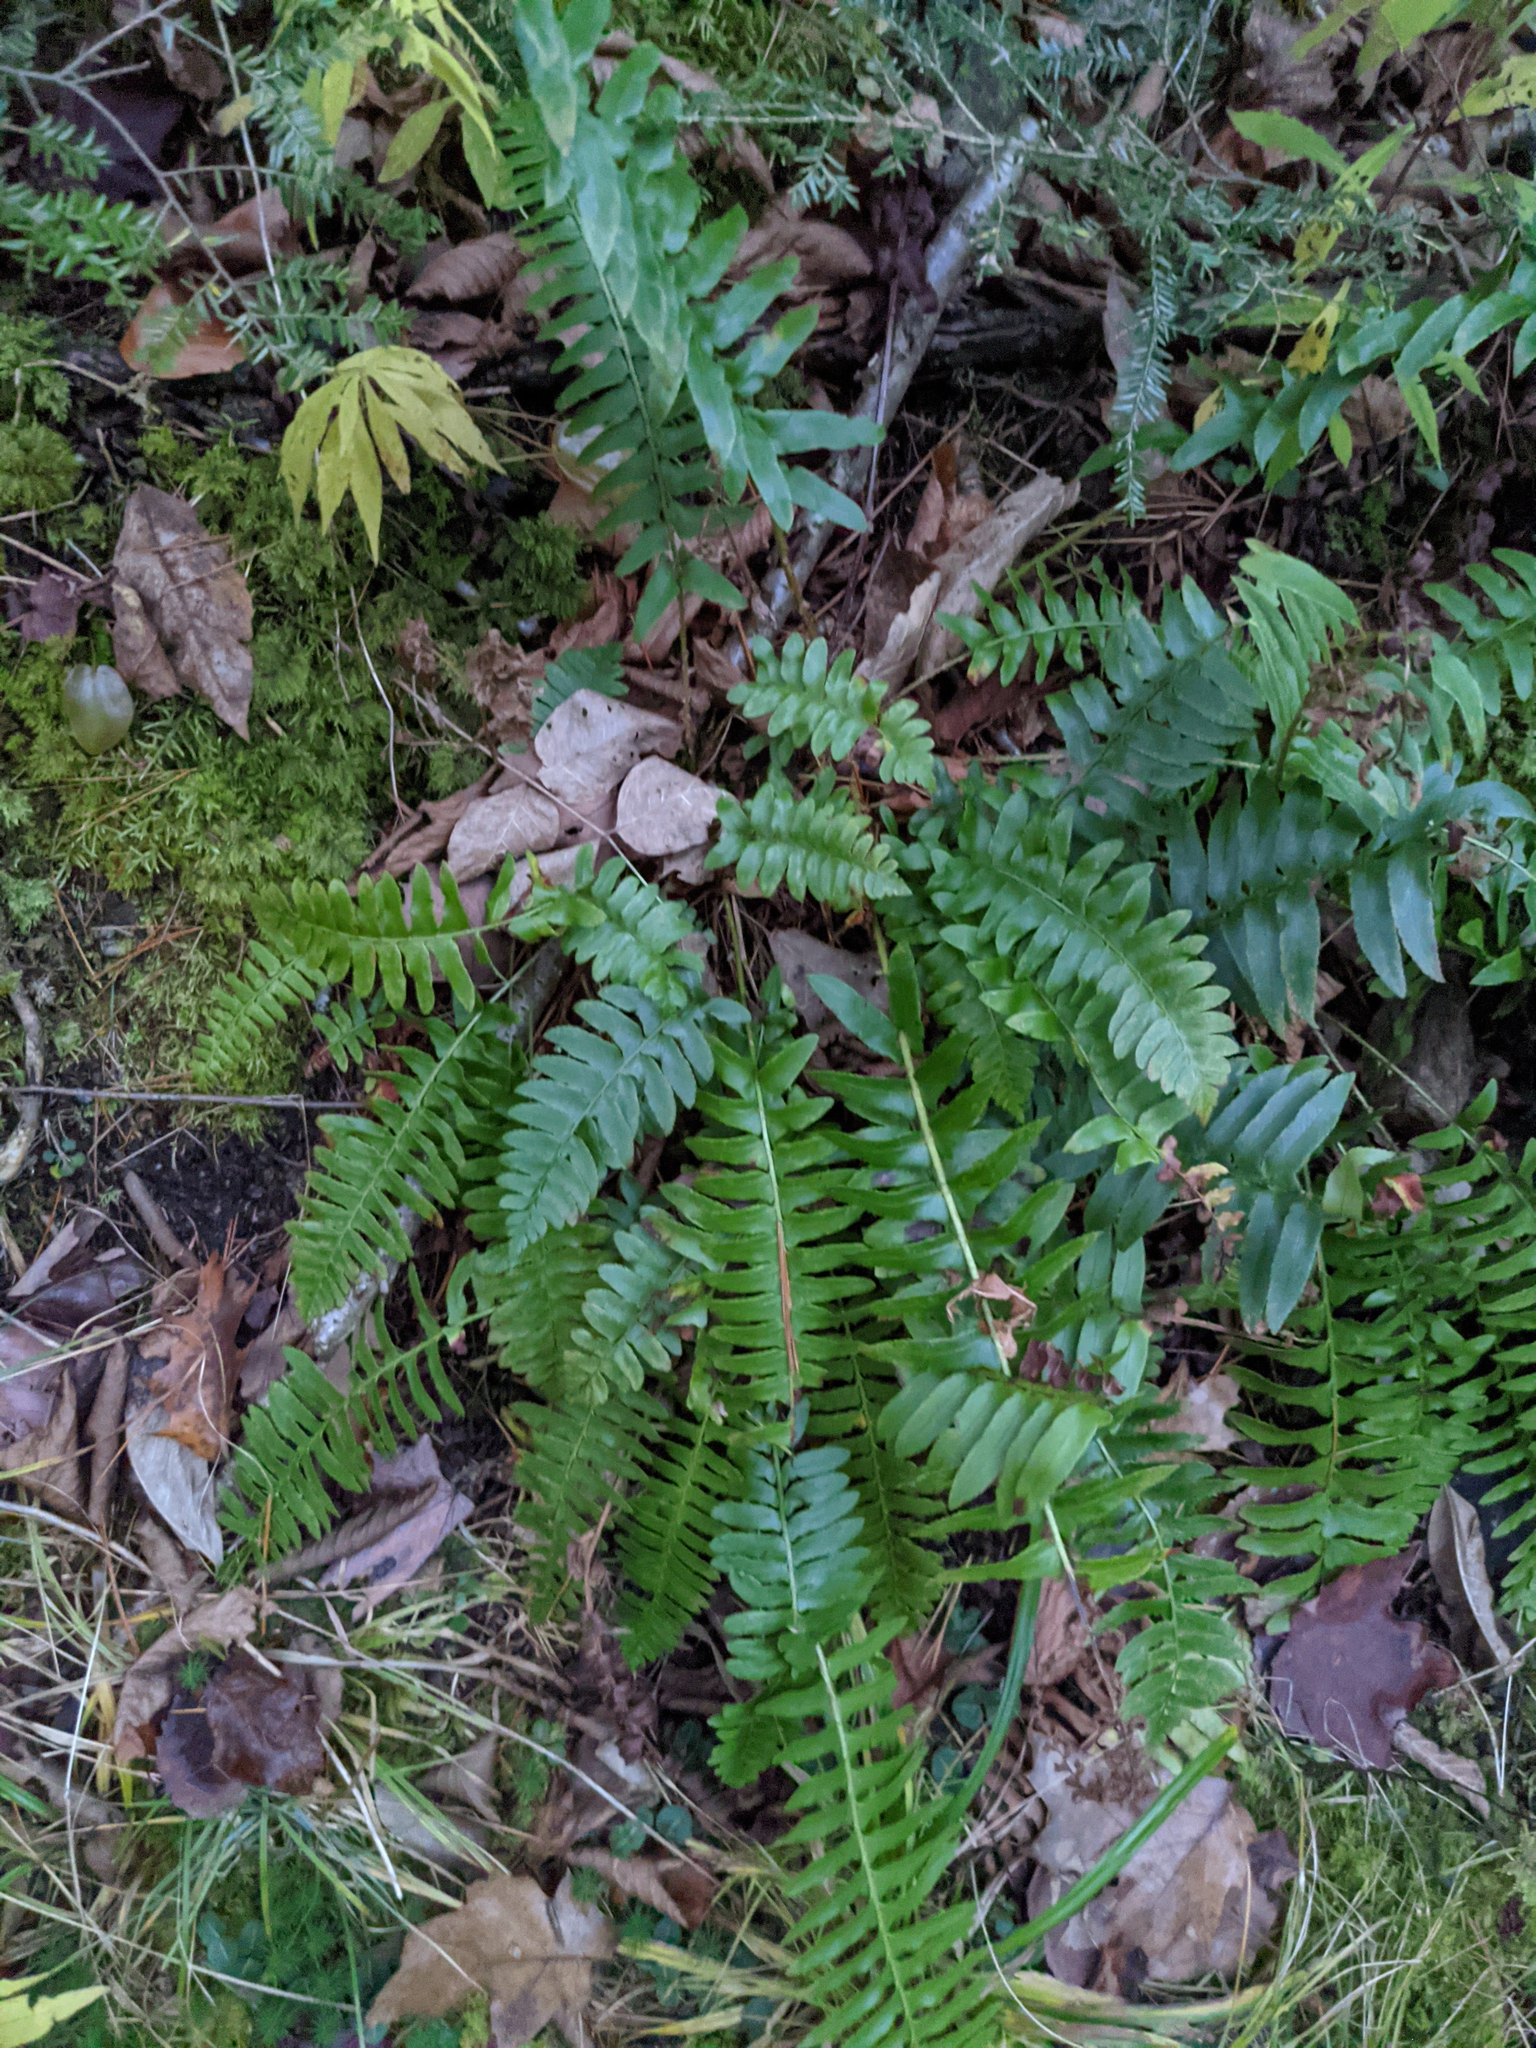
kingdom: Plantae
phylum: Tracheophyta
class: Polypodiopsida
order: Polypodiales
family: Dryopteridaceae
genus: Polystichum
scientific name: Polystichum acrostichoides
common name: Christmas fern
